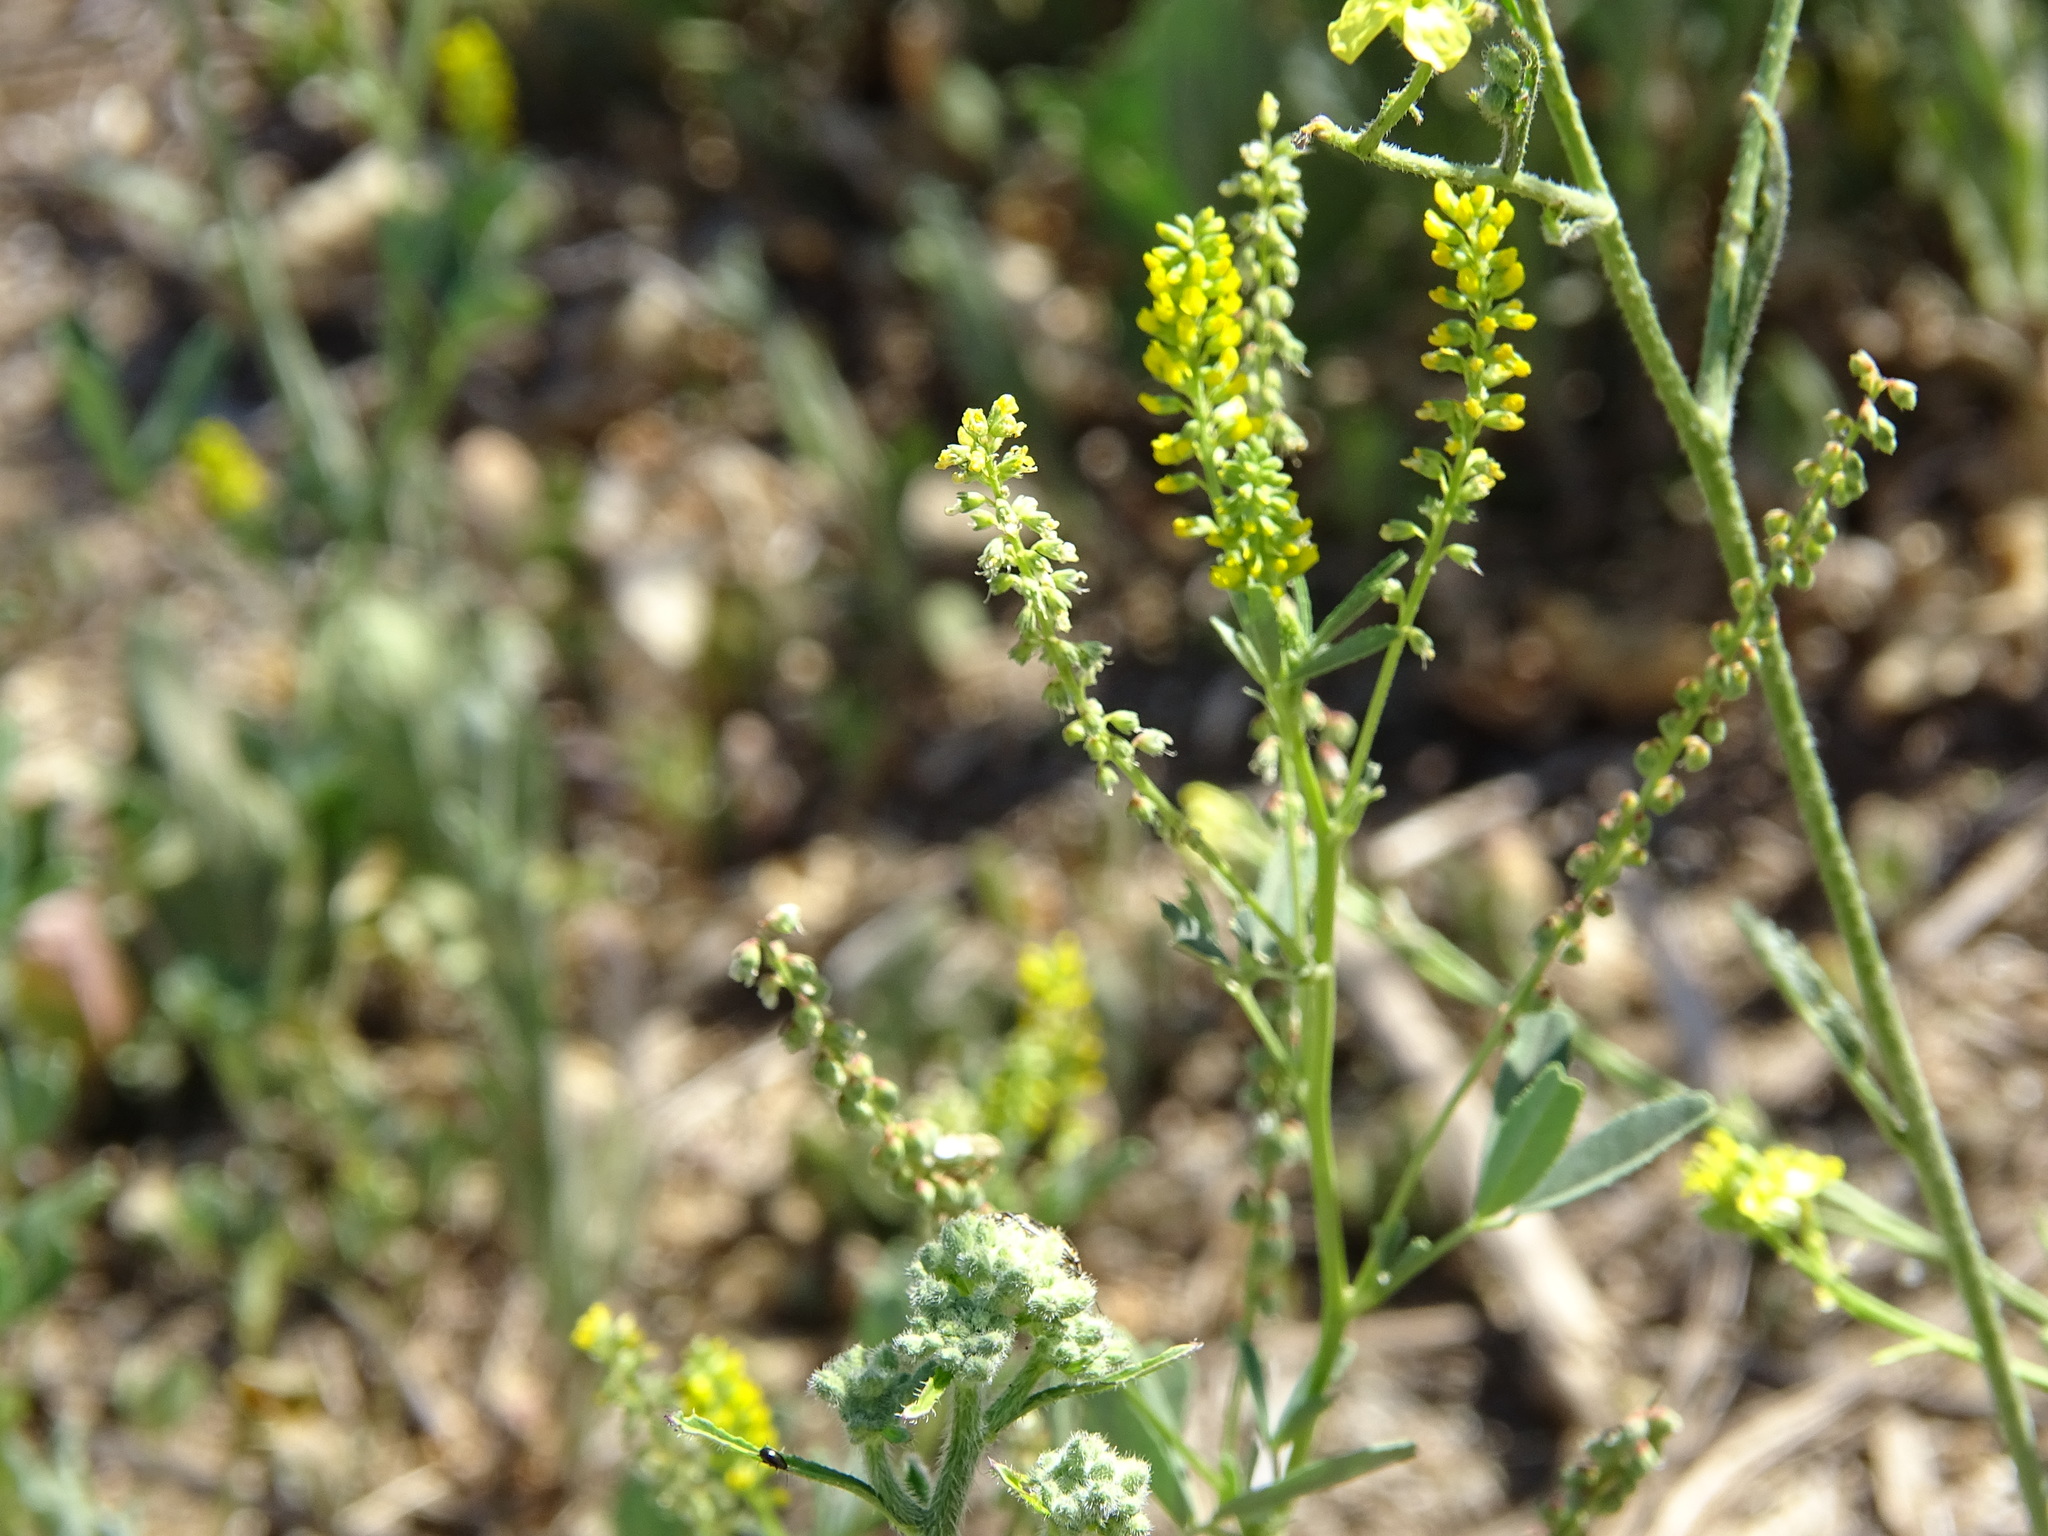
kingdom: Plantae
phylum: Tracheophyta
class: Magnoliopsida
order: Fabales
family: Fabaceae
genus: Melilotus
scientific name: Melilotus indicus
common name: Small melilot
